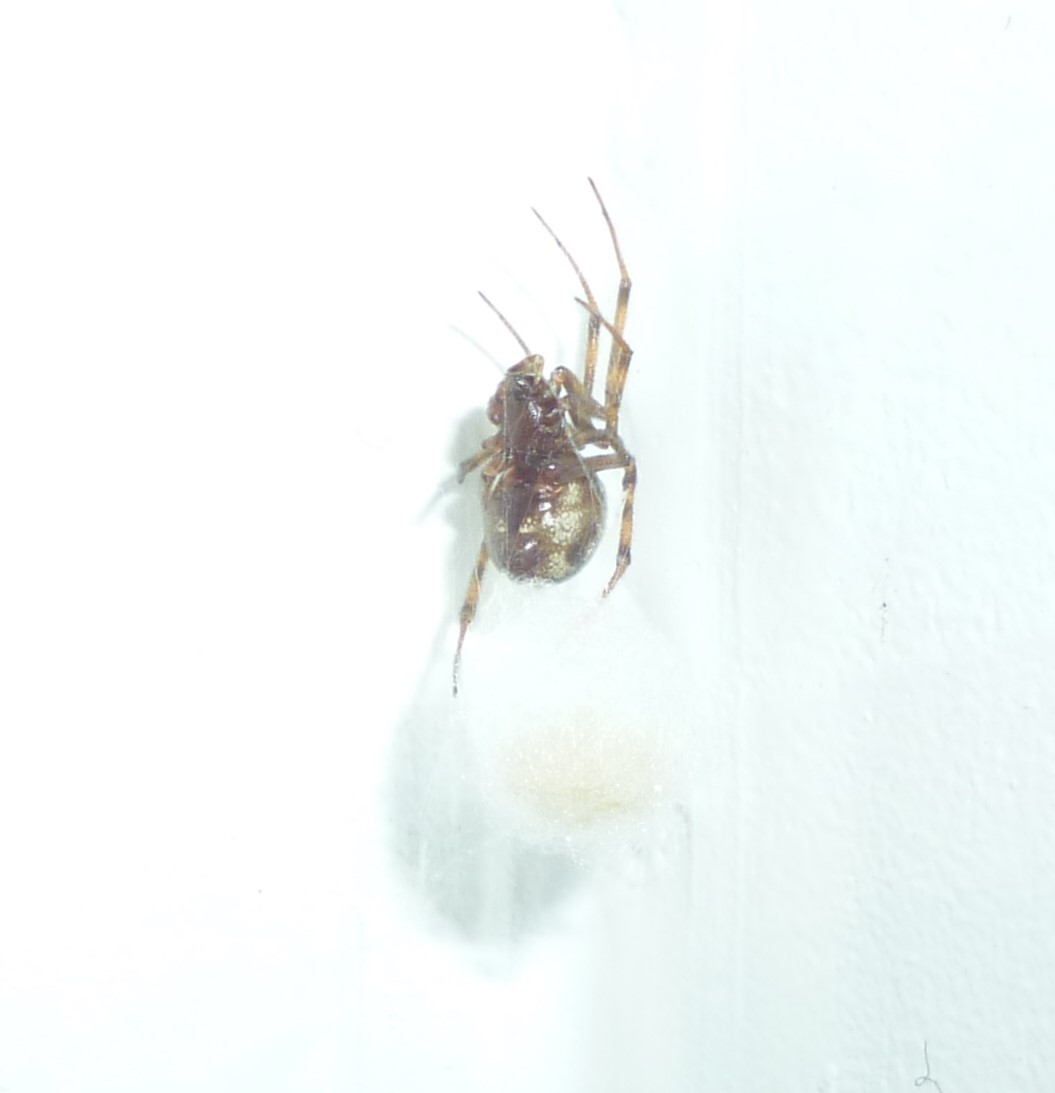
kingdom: Animalia
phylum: Arthropoda
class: Arachnida
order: Araneae
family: Theridiidae
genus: Steatoda
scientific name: Steatoda triangulosa
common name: Triangulate bud spider
